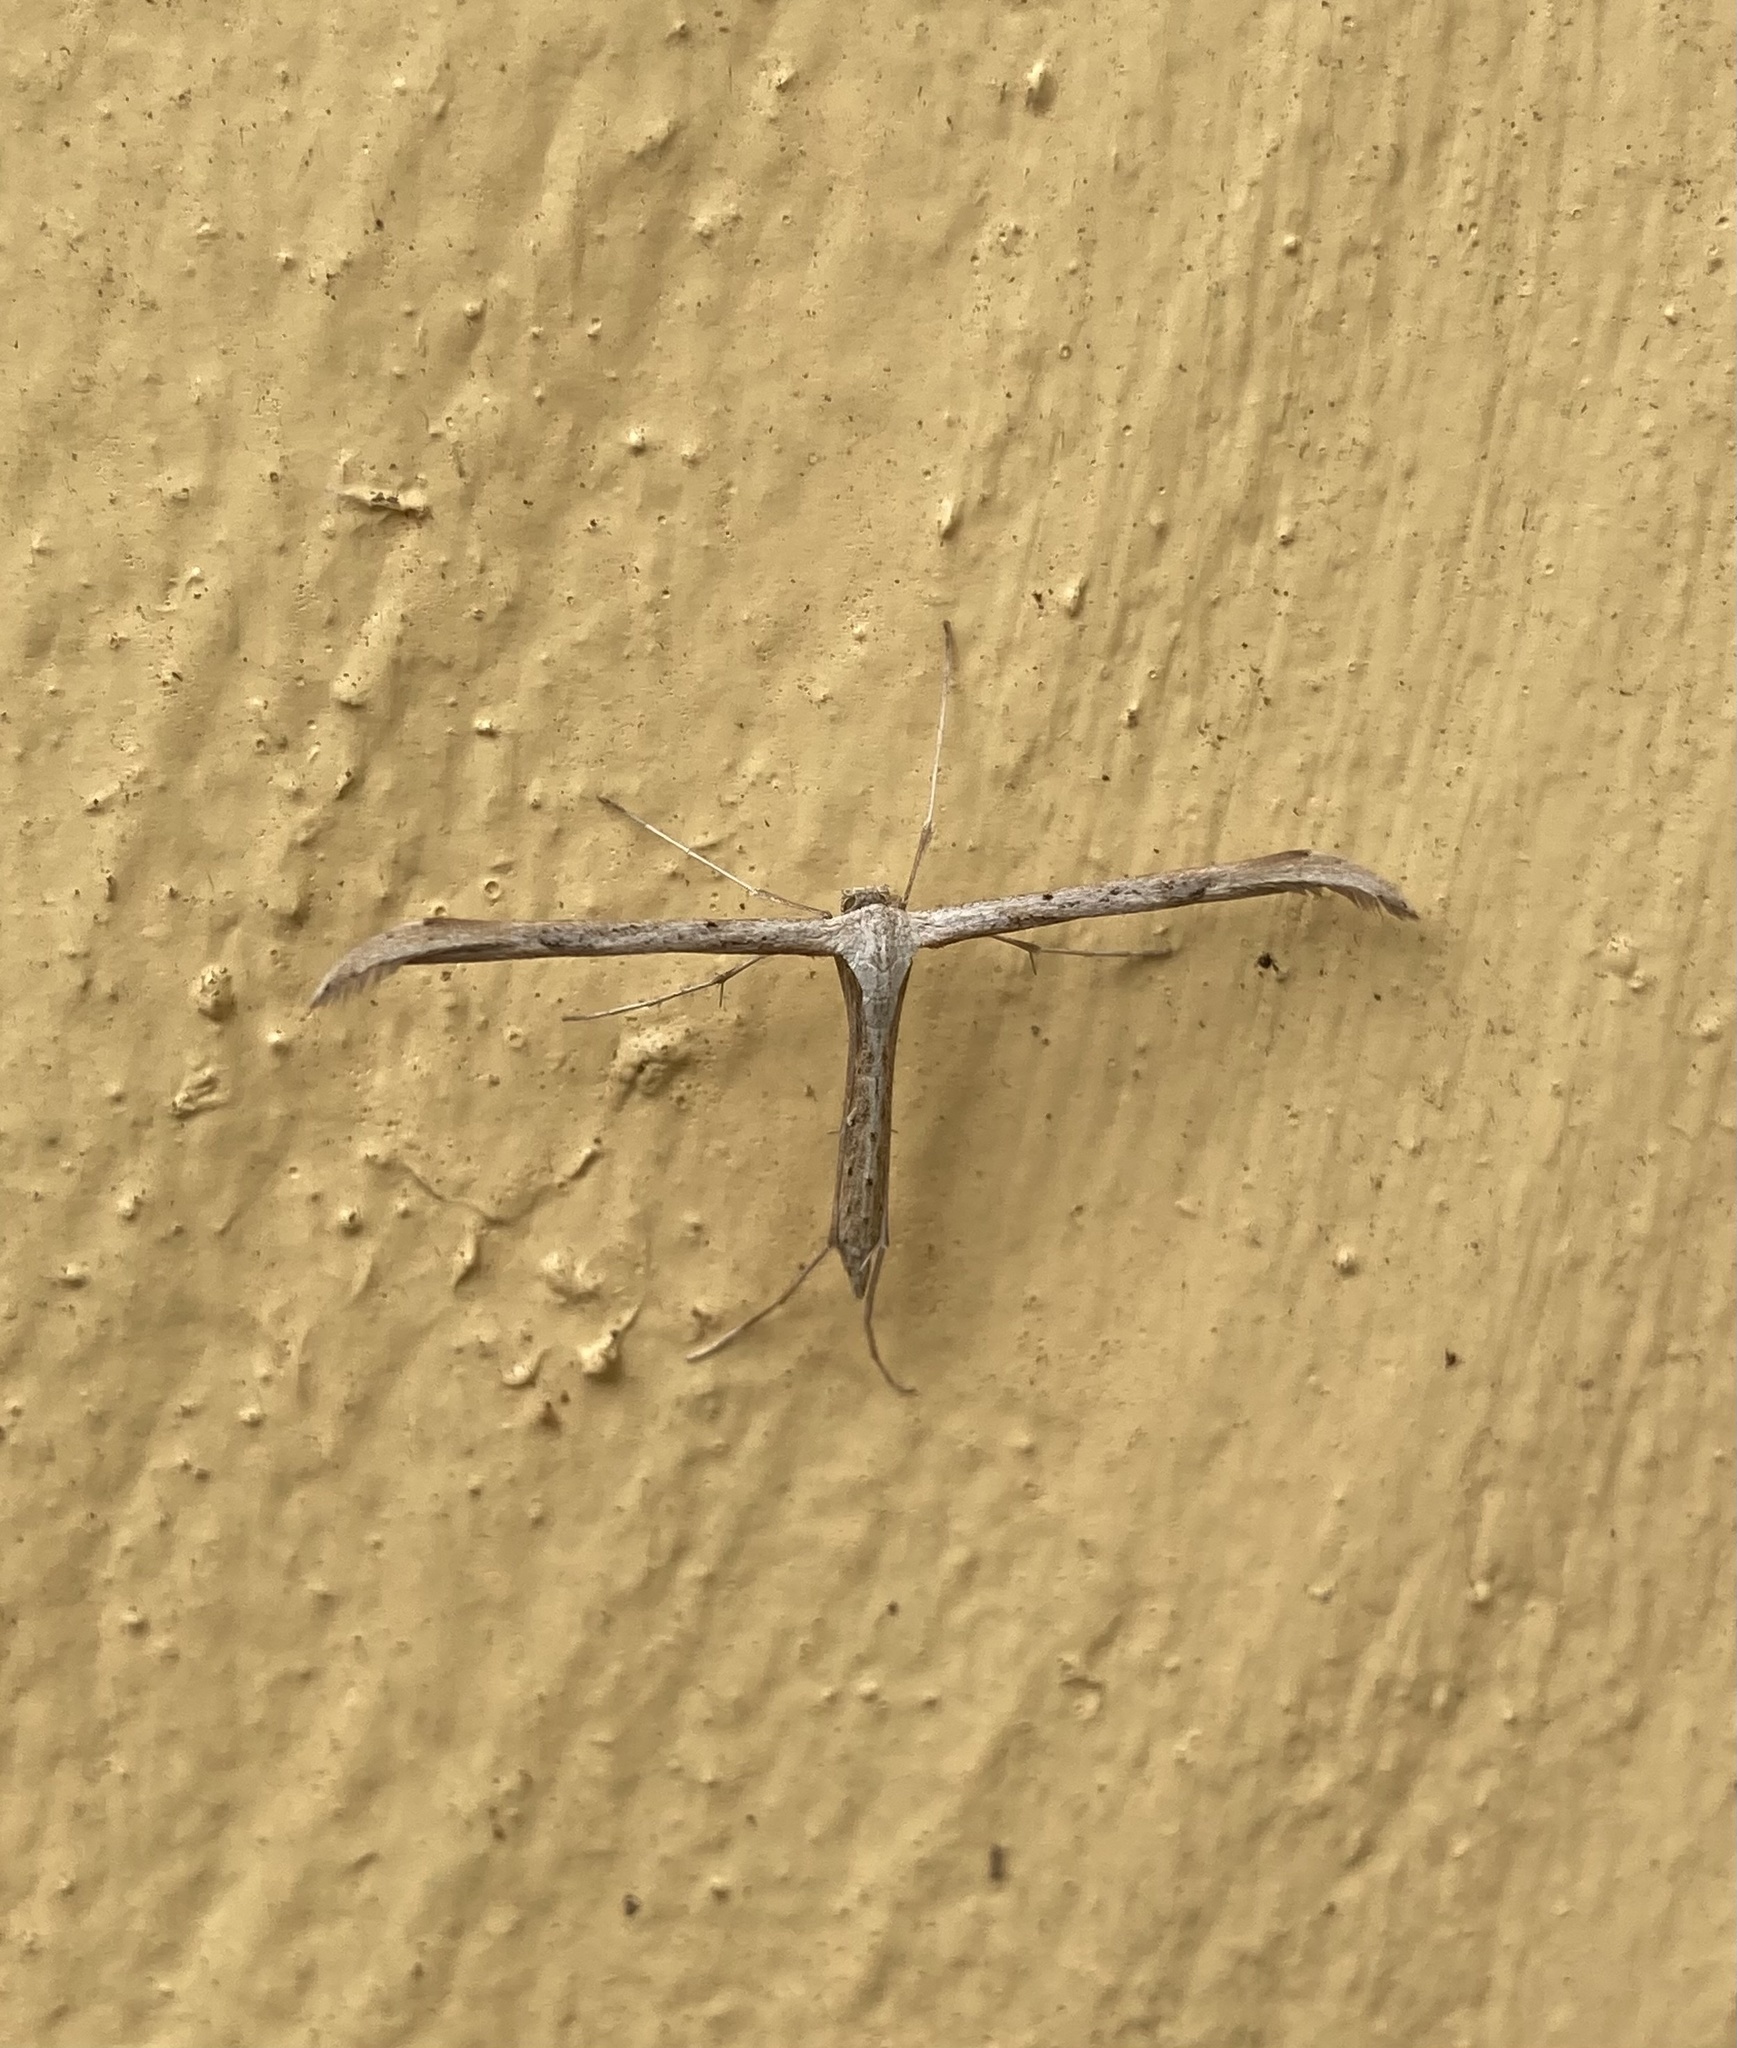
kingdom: Animalia
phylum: Arthropoda
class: Insecta
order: Lepidoptera
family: Pterophoridae
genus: Emmelina
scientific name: Emmelina monodactyla
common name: Common plume
